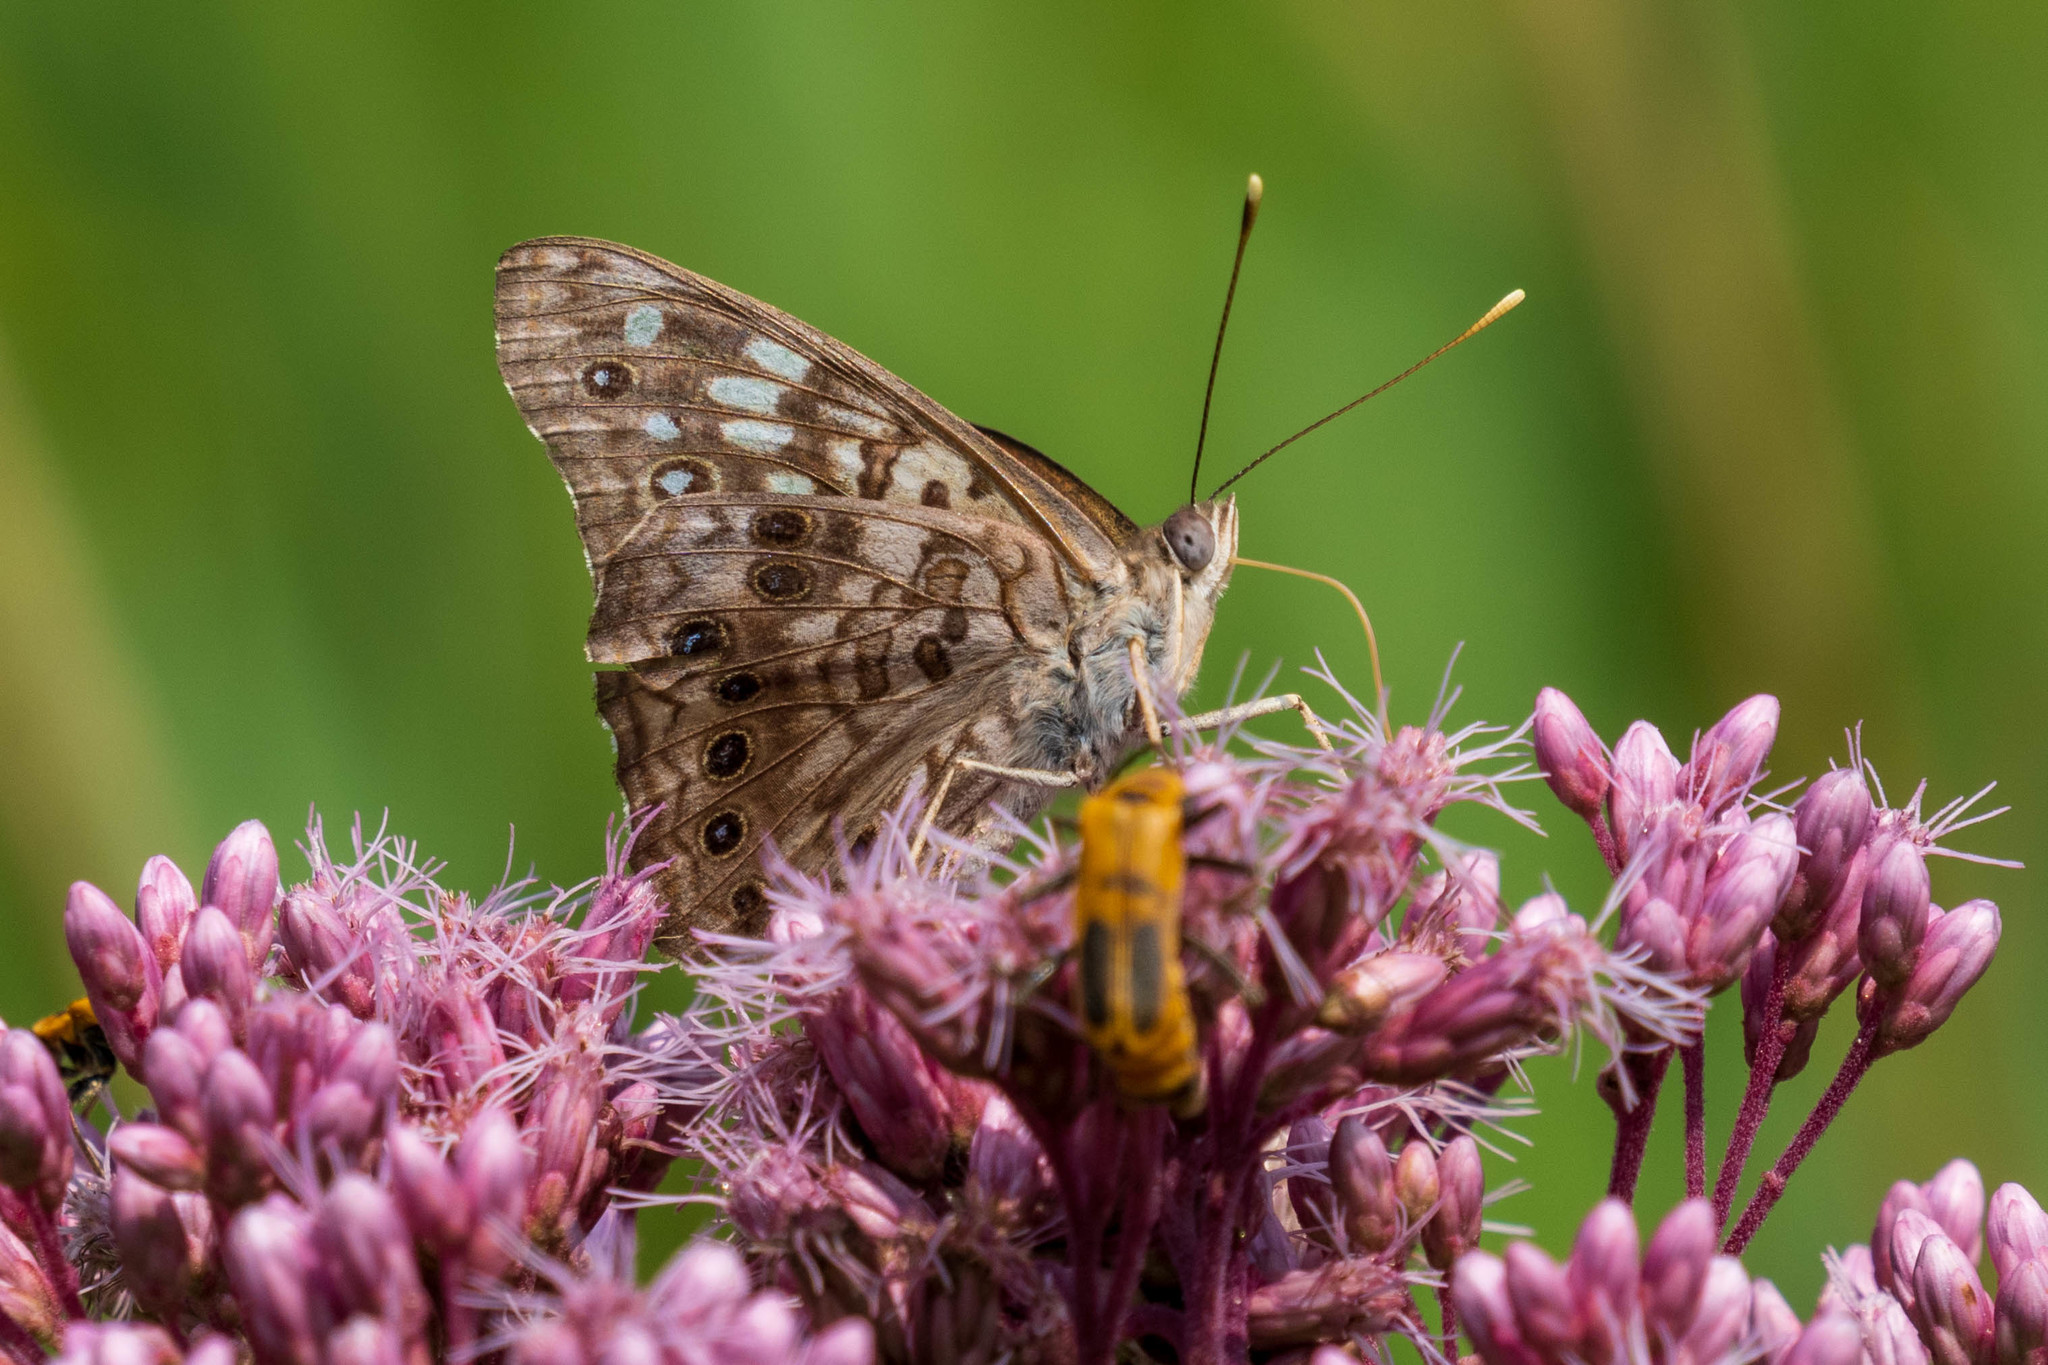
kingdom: Animalia
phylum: Arthropoda
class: Insecta
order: Lepidoptera
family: Nymphalidae
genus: Asterocampa
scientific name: Asterocampa celtis
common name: Hackberry emperor
